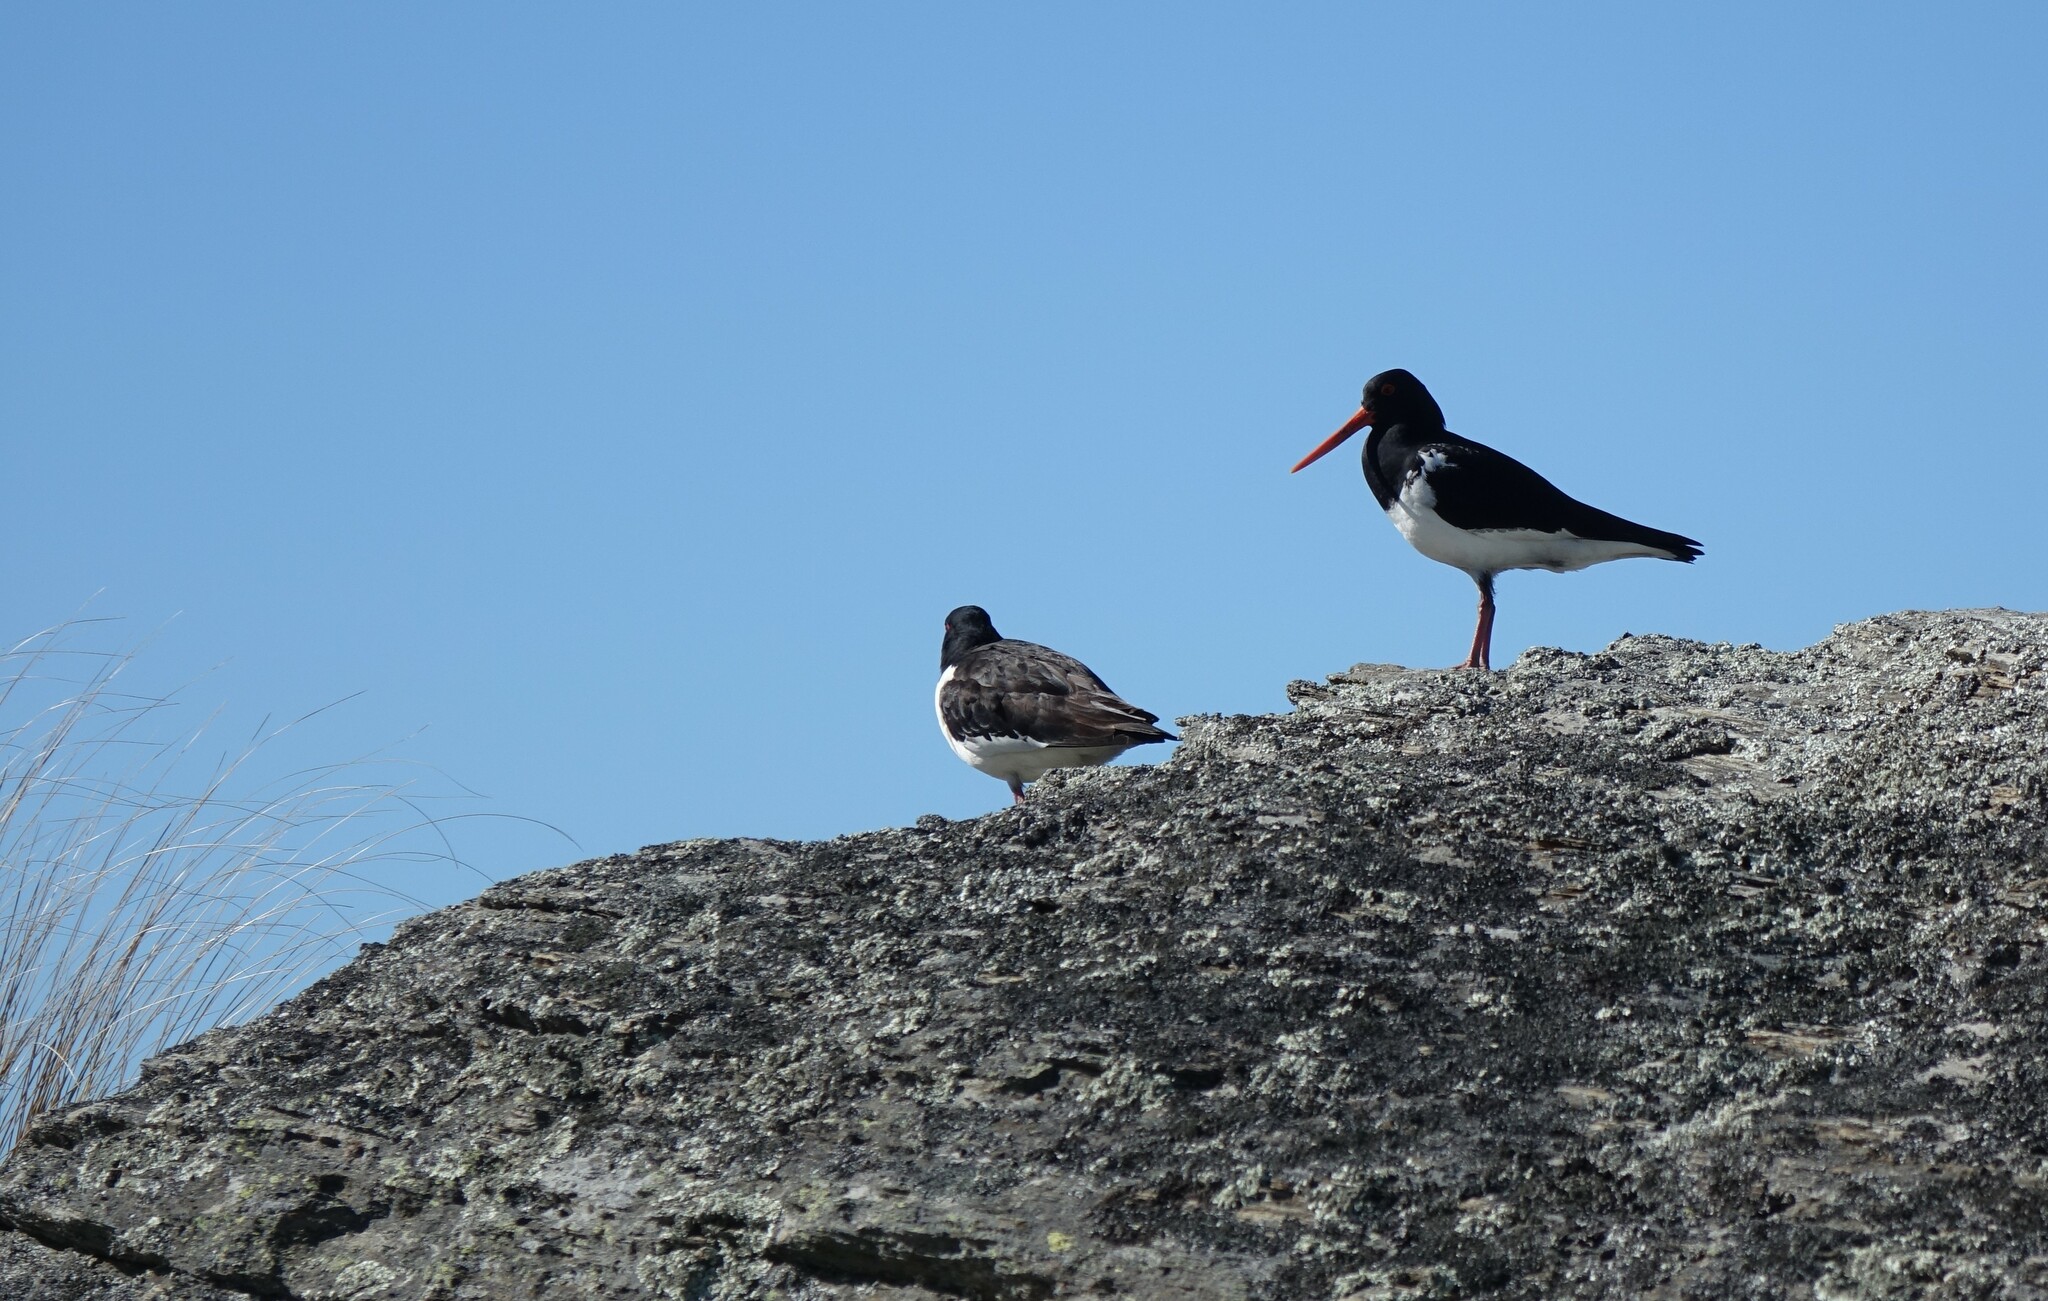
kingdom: Animalia
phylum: Chordata
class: Aves
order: Charadriiformes
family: Haematopodidae
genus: Haematopus
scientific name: Haematopus finschi
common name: South island oystercatcher
